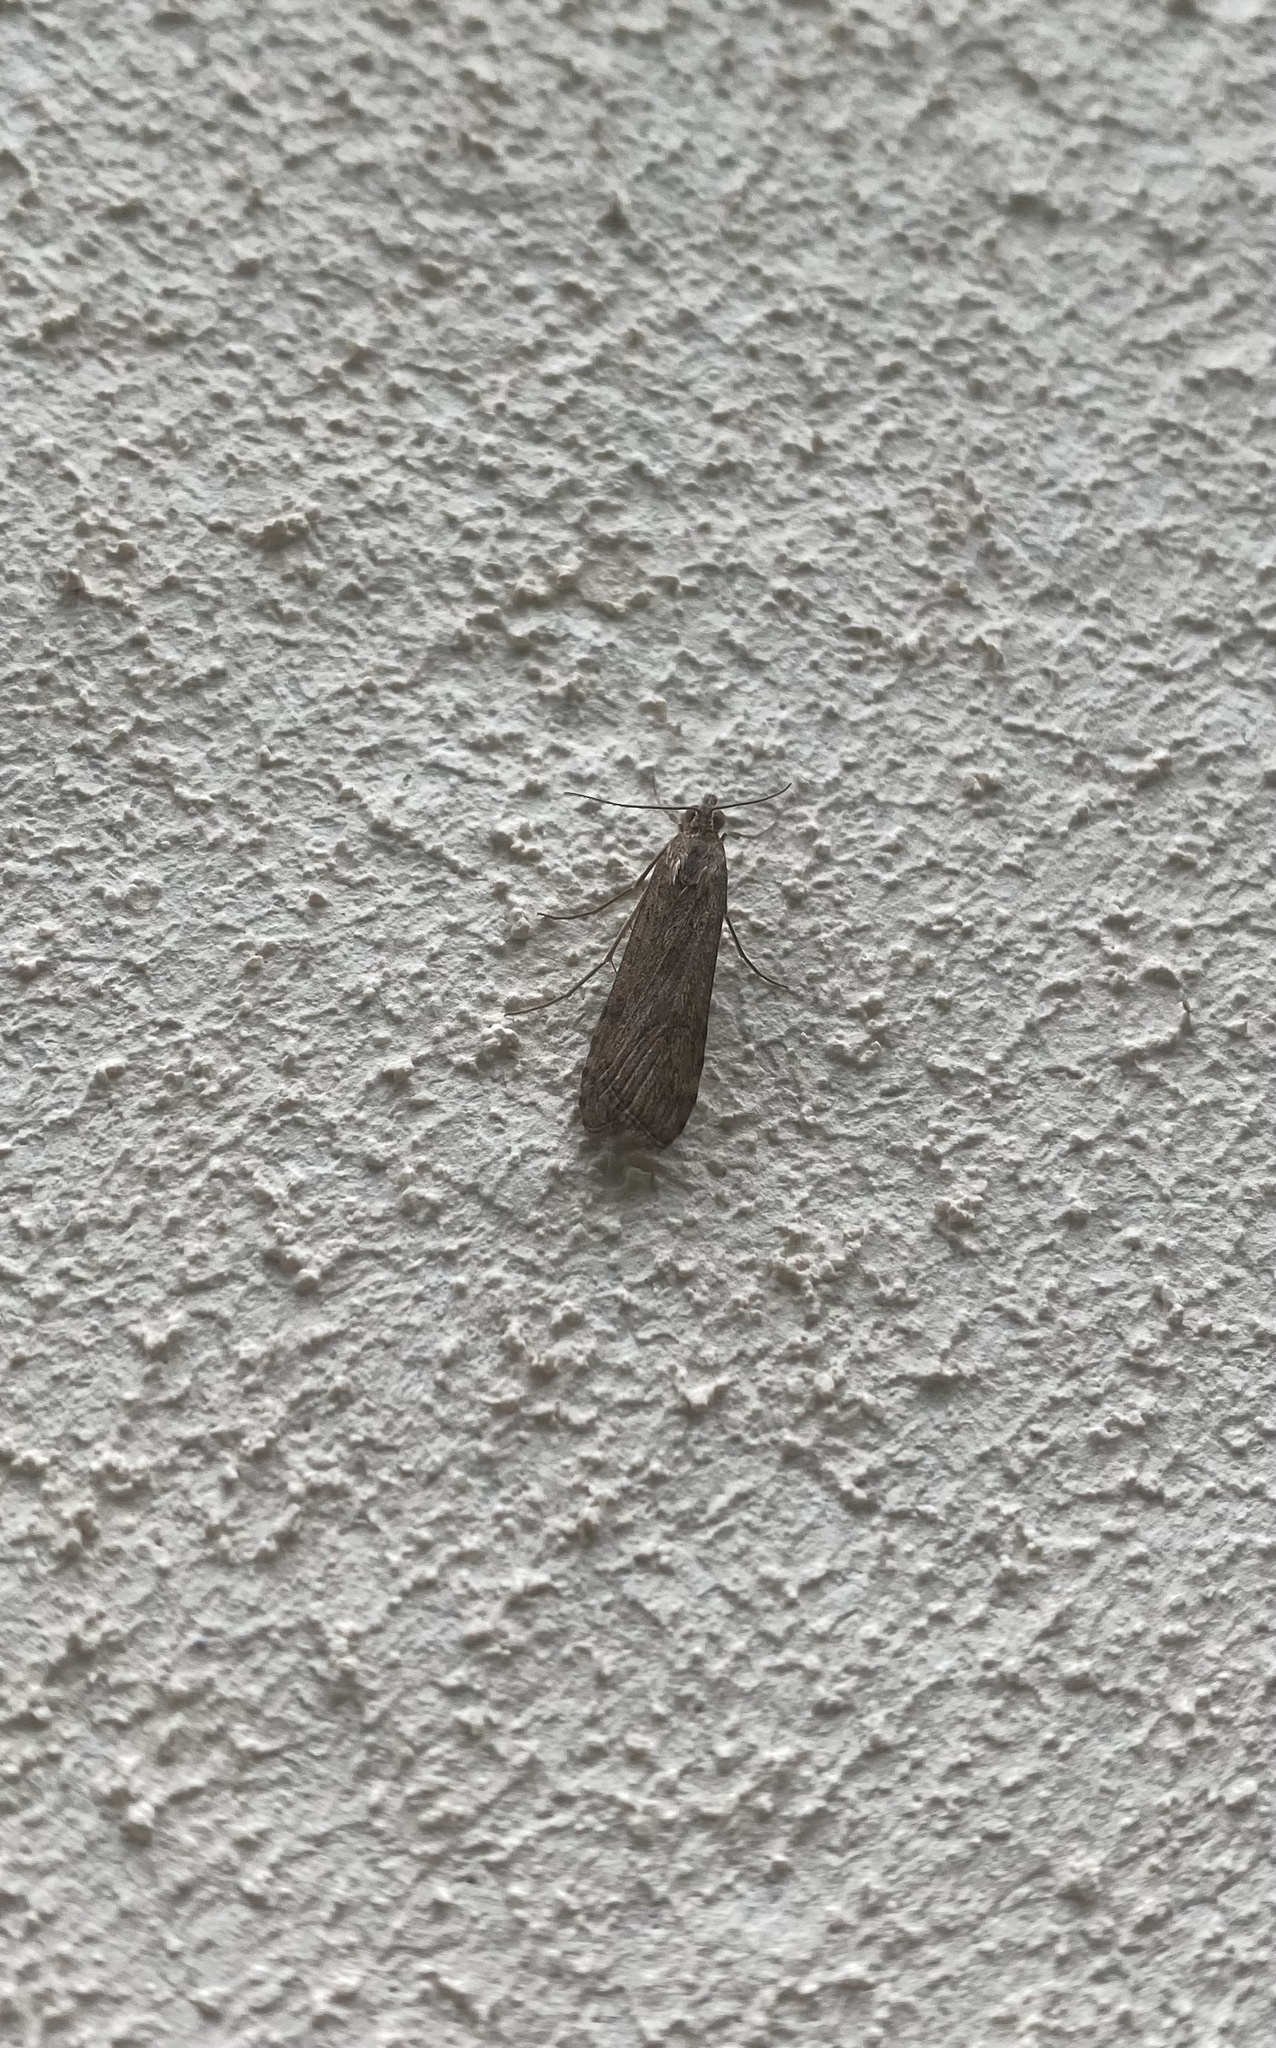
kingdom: Animalia
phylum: Arthropoda
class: Insecta
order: Lepidoptera
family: Crambidae
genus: Nomophila
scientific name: Nomophila noctuella
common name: Rush veneer
